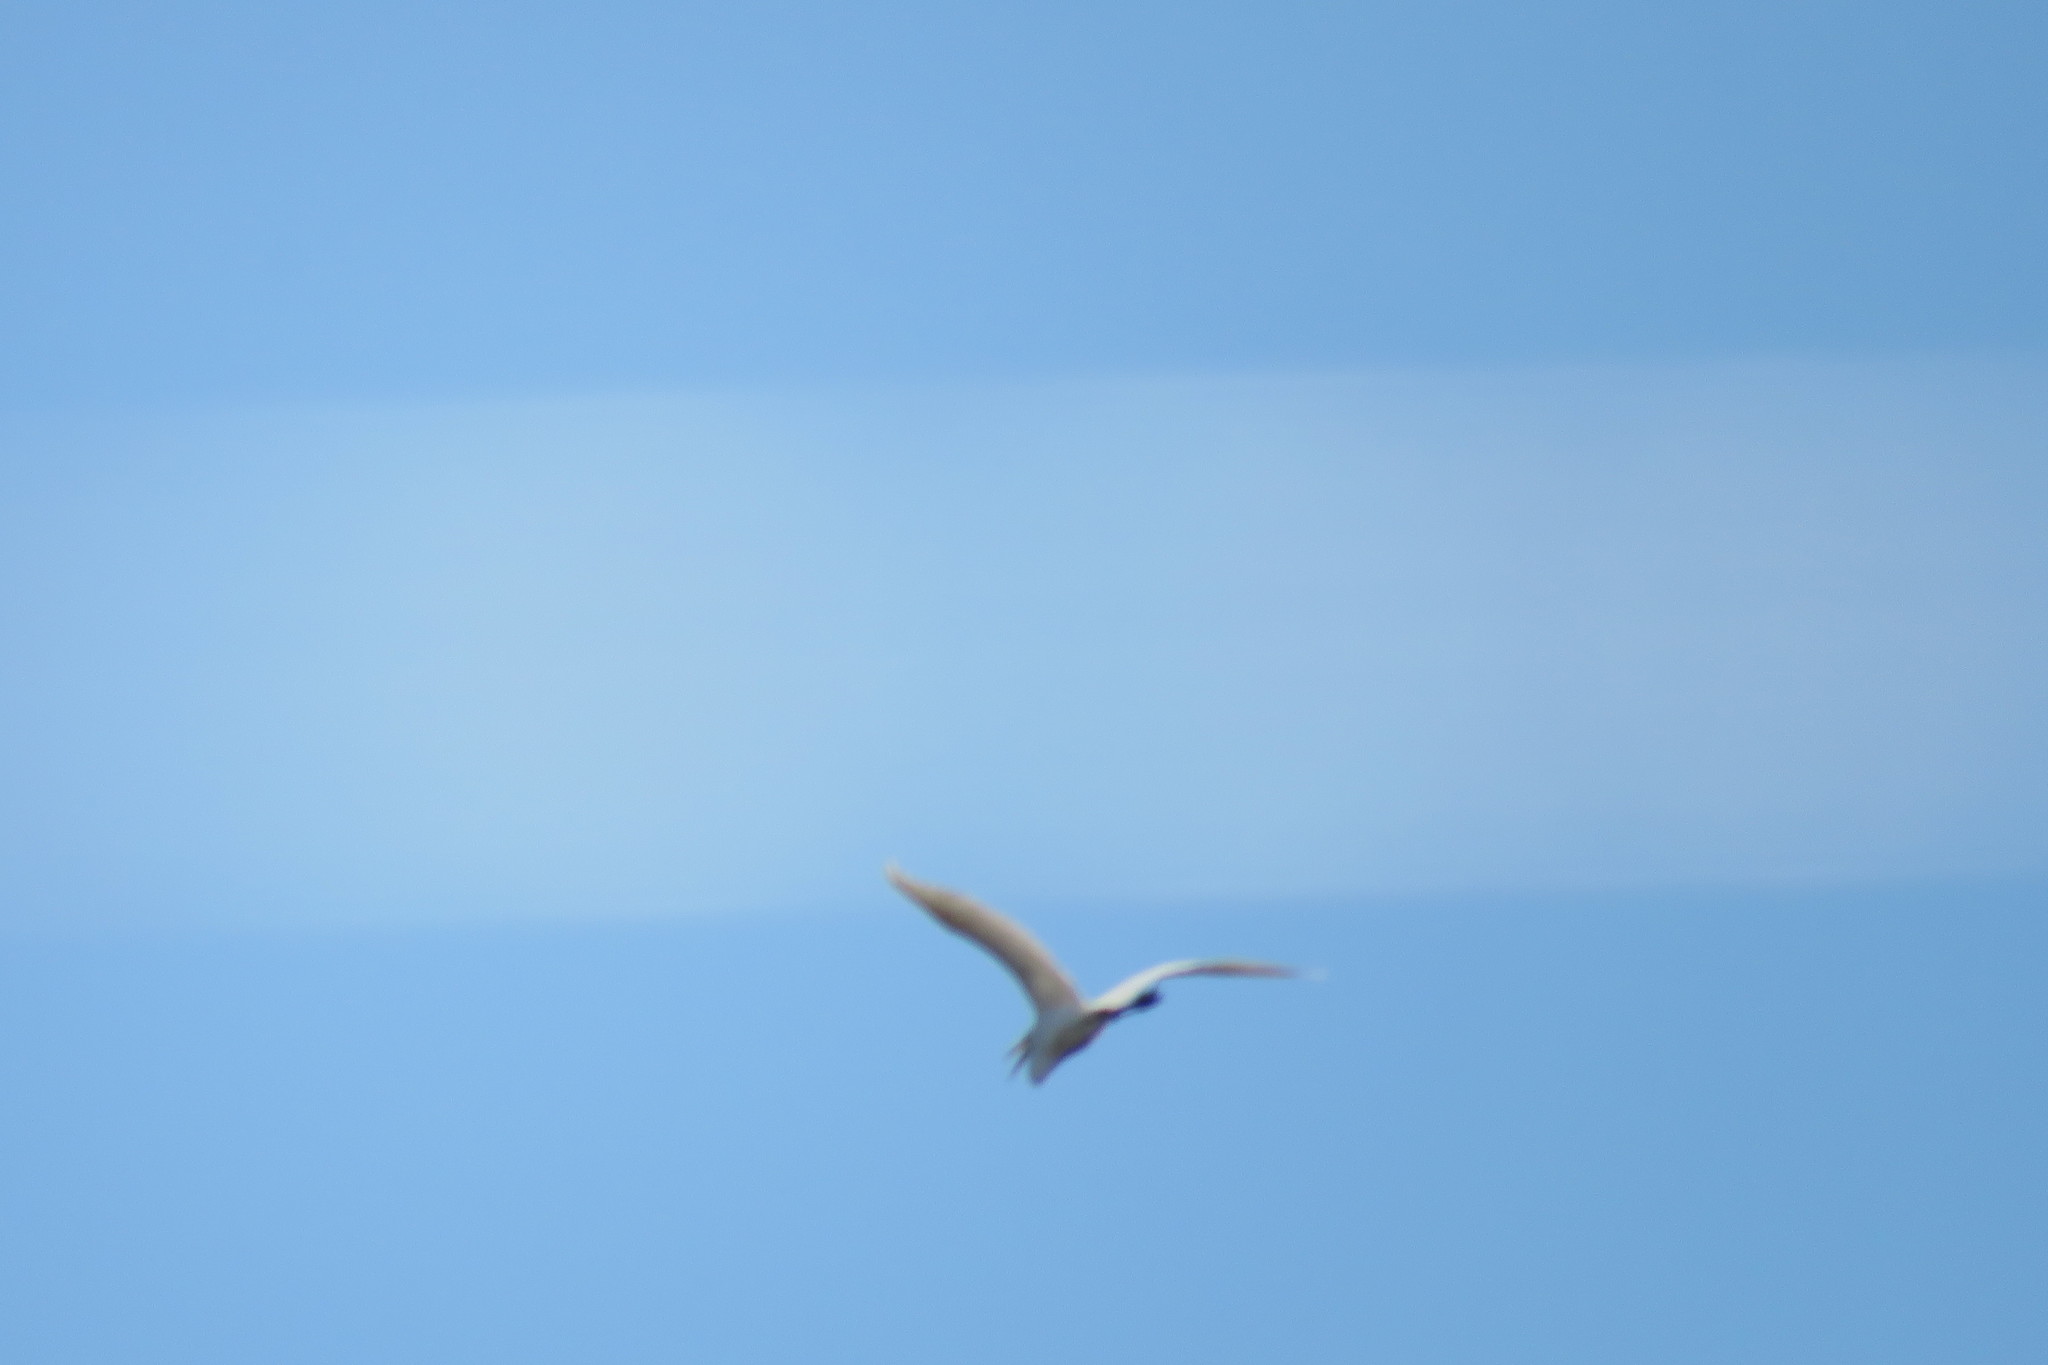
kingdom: Animalia
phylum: Chordata
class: Aves
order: Pelecaniformes
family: Ardeidae
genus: Ardea
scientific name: Ardea alba
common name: Great egret
